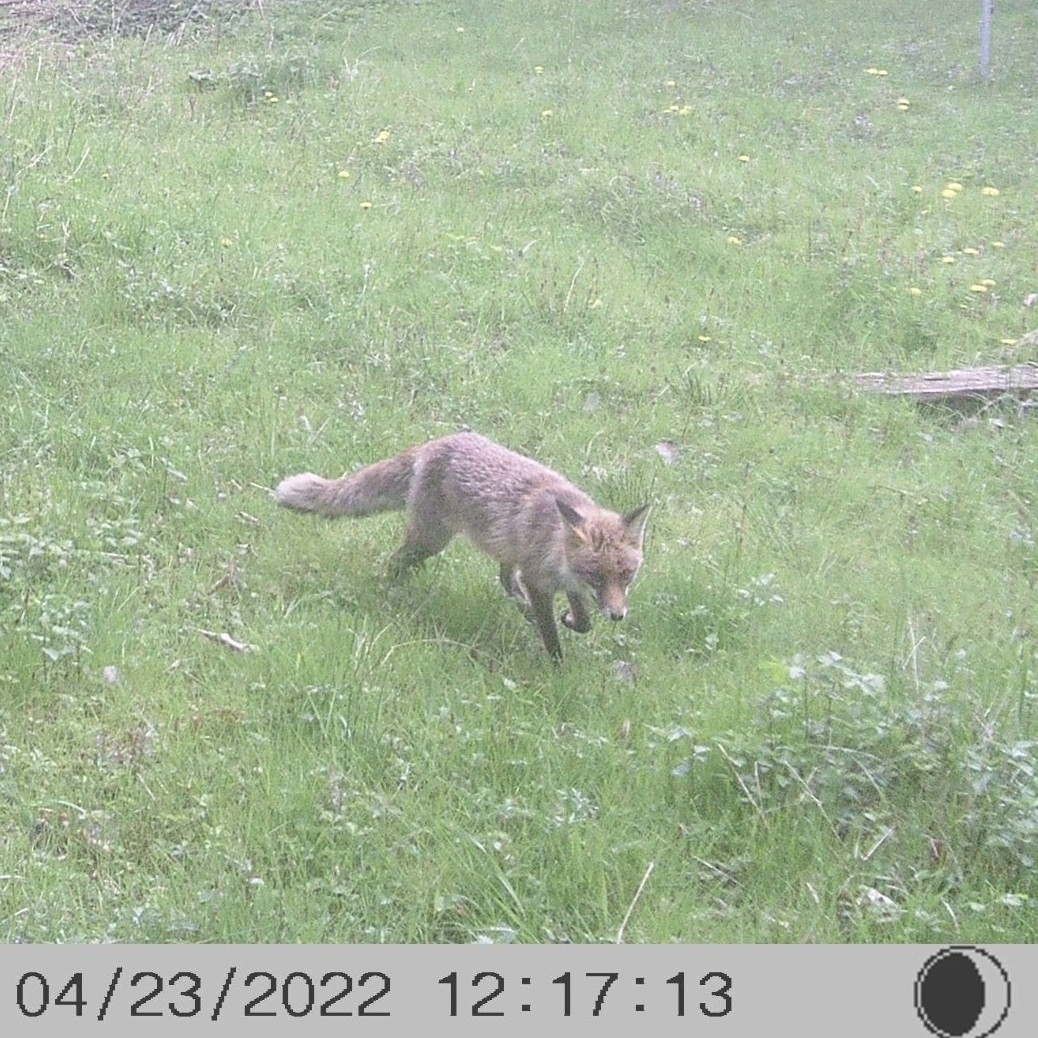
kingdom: Animalia
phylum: Chordata
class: Mammalia
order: Carnivora
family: Canidae
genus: Vulpes
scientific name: Vulpes vulpes
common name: Red fox
